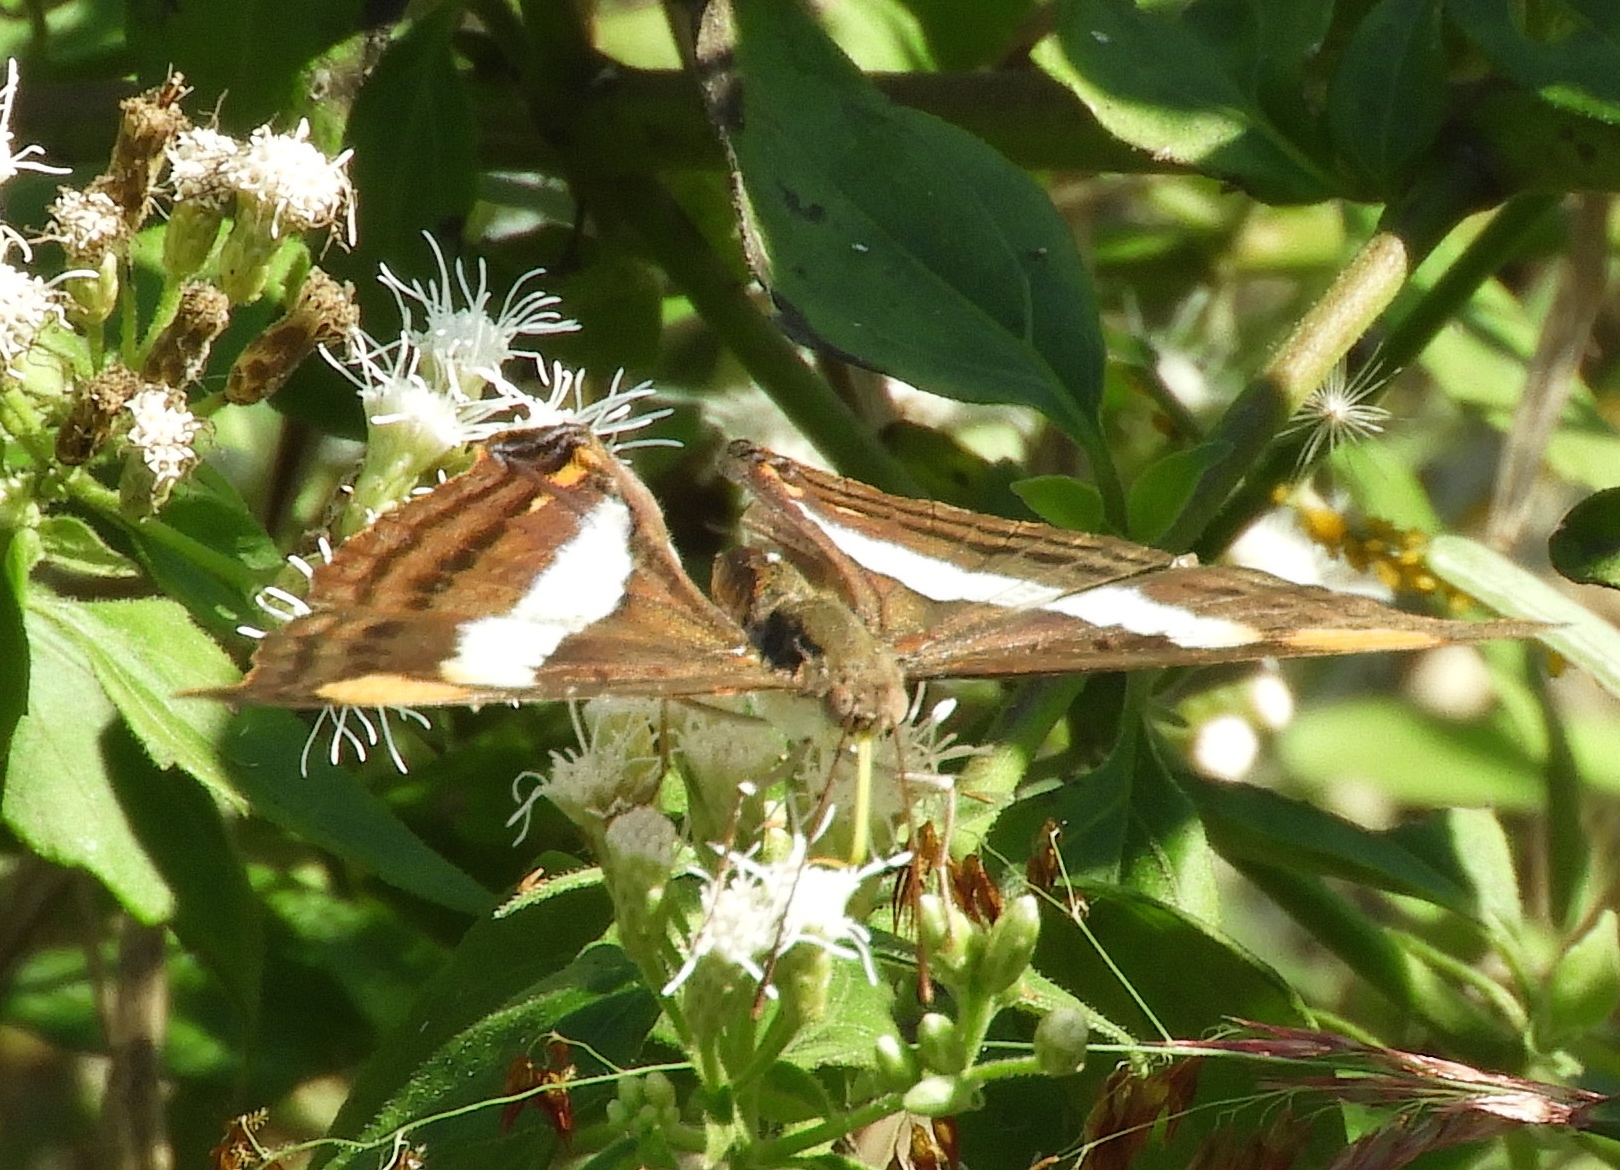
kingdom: Animalia
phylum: Arthropoda
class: Insecta
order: Lepidoptera
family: Nymphalidae
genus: Doxocopa
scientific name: Doxocopa
